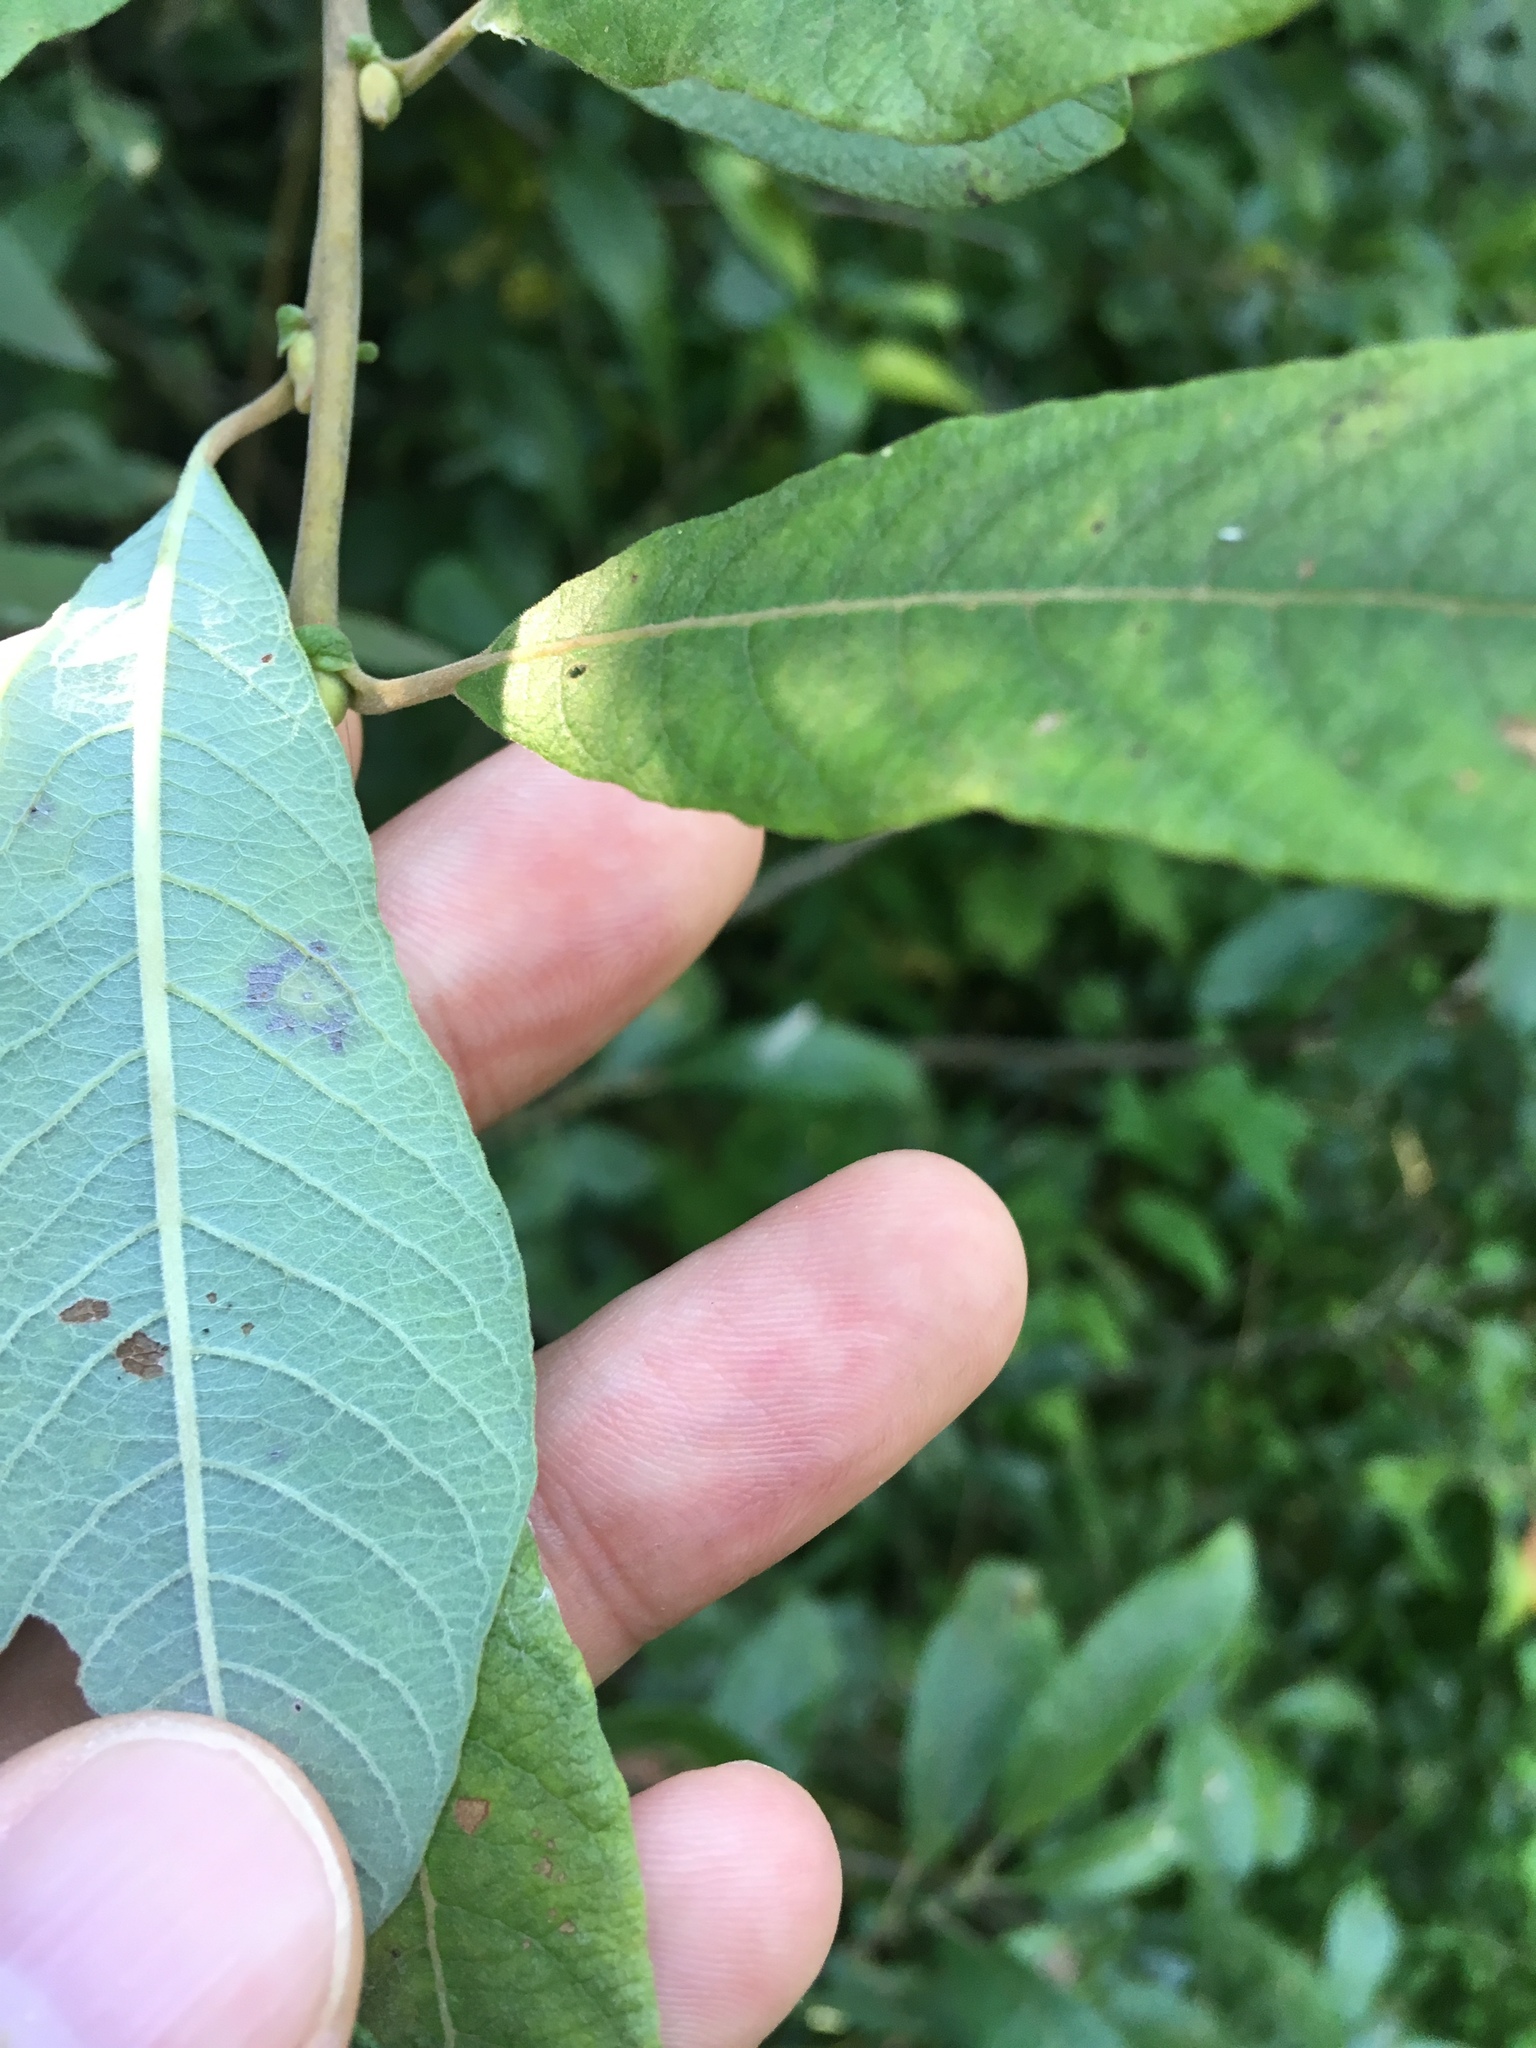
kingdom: Plantae
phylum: Tracheophyta
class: Magnoliopsida
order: Malpighiales
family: Salicaceae
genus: Salix
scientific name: Salix cinerea
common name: Common sallow
